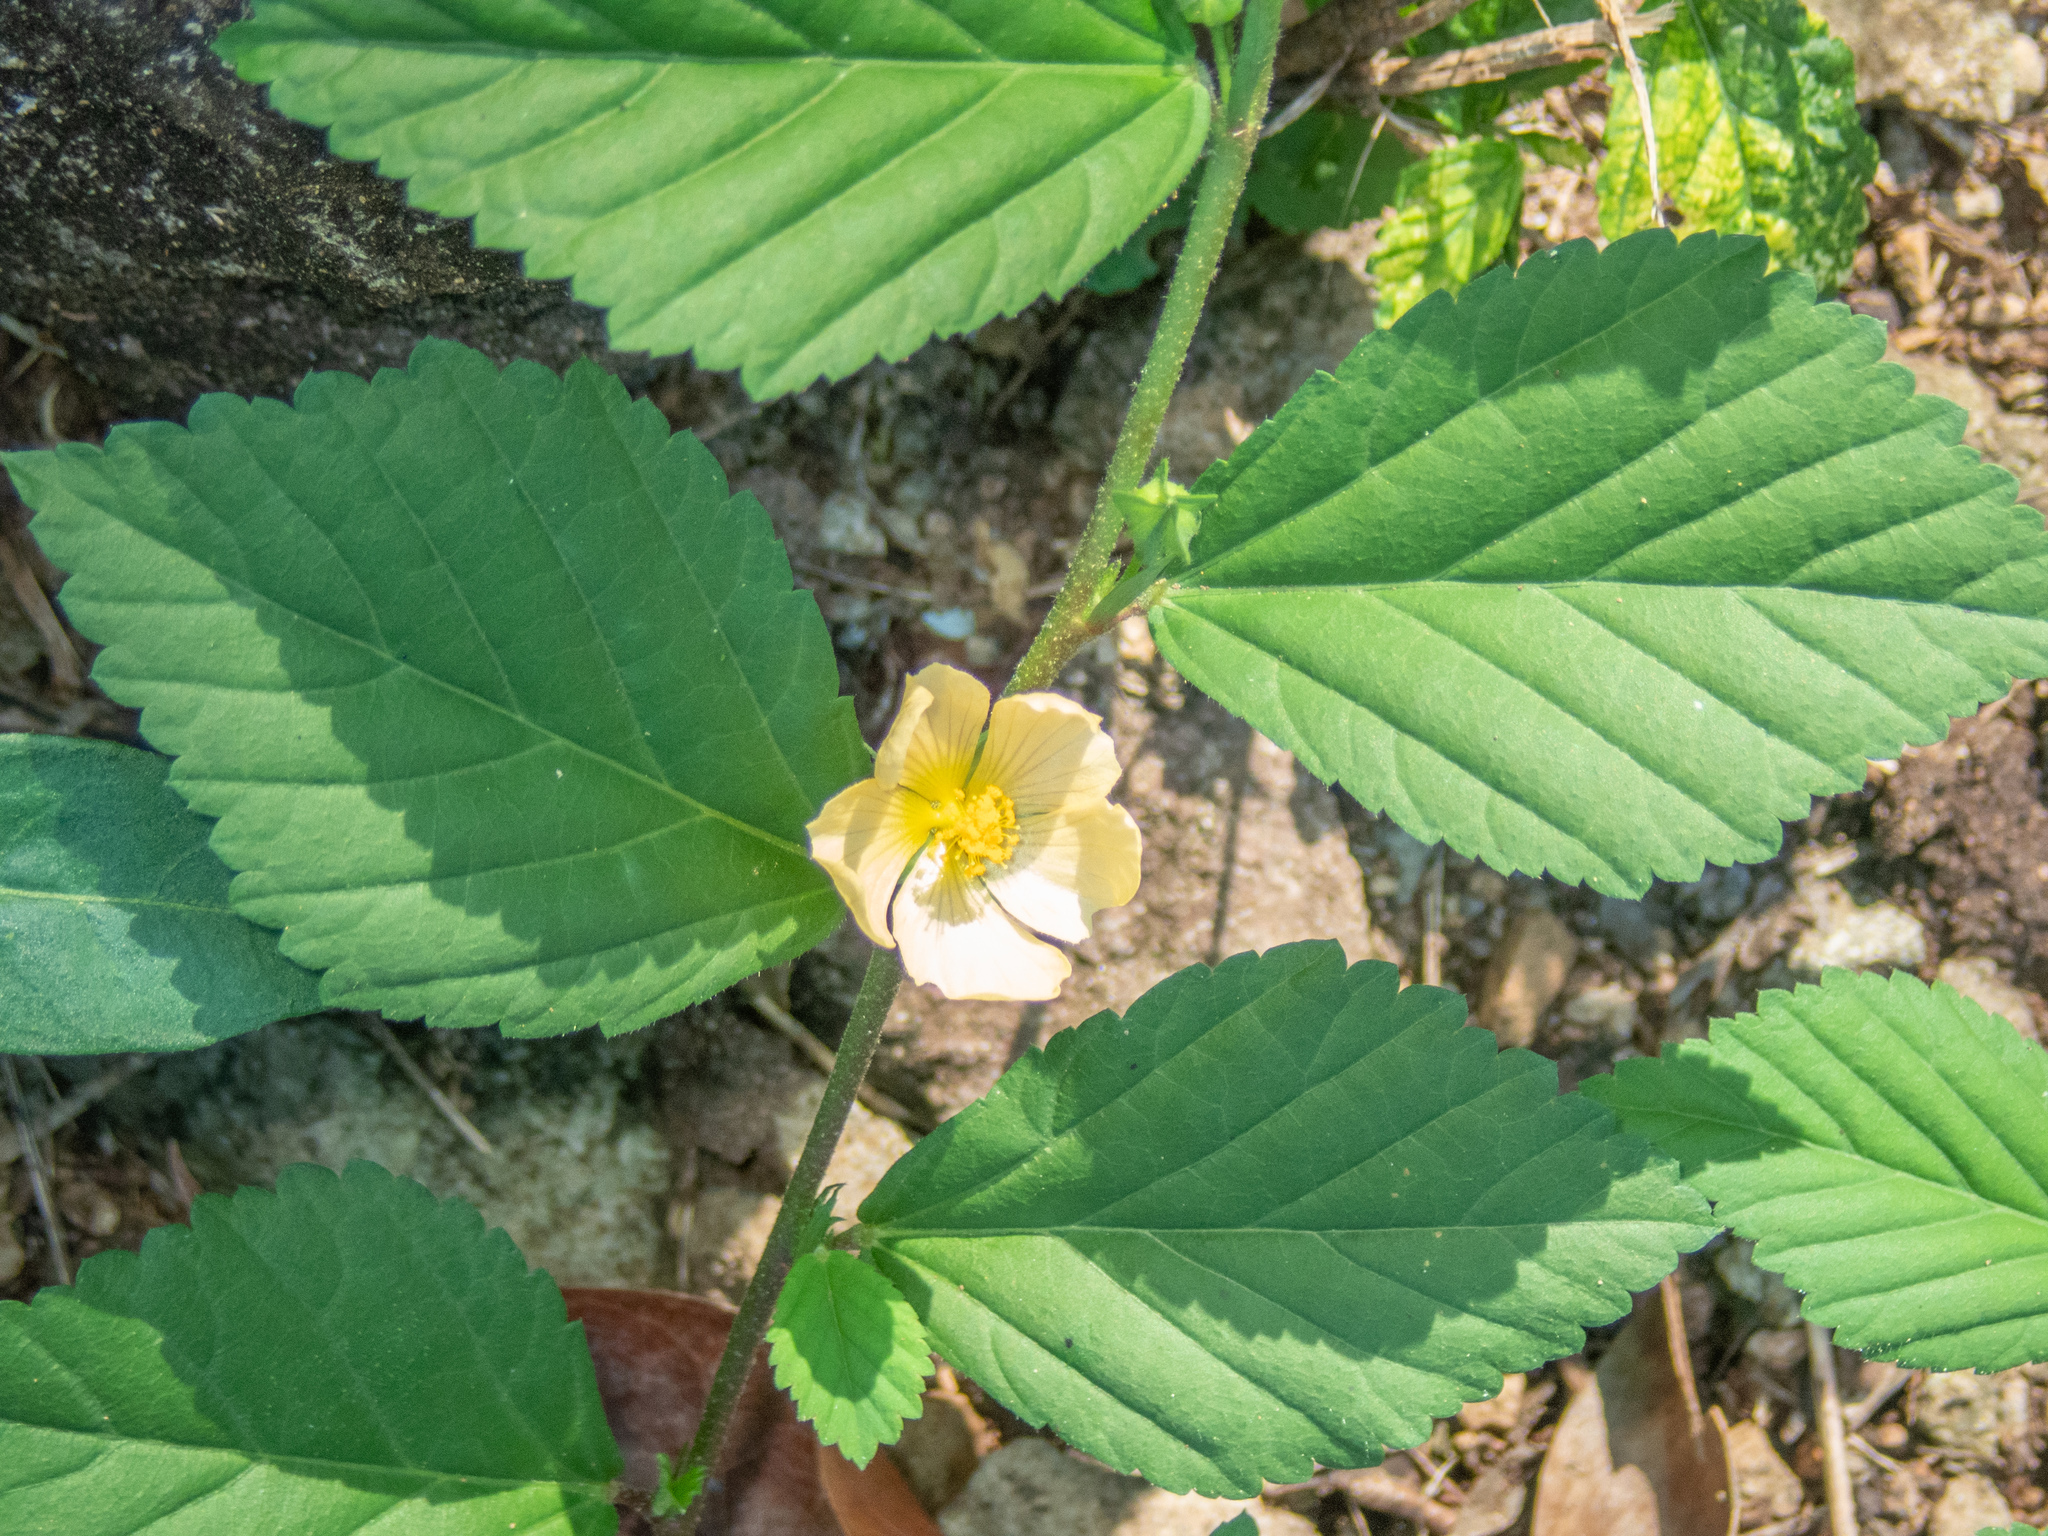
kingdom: Plantae
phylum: Tracheophyta
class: Magnoliopsida
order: Malvales
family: Malvaceae
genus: Sida
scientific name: Sida acuta
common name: Common wireweed
